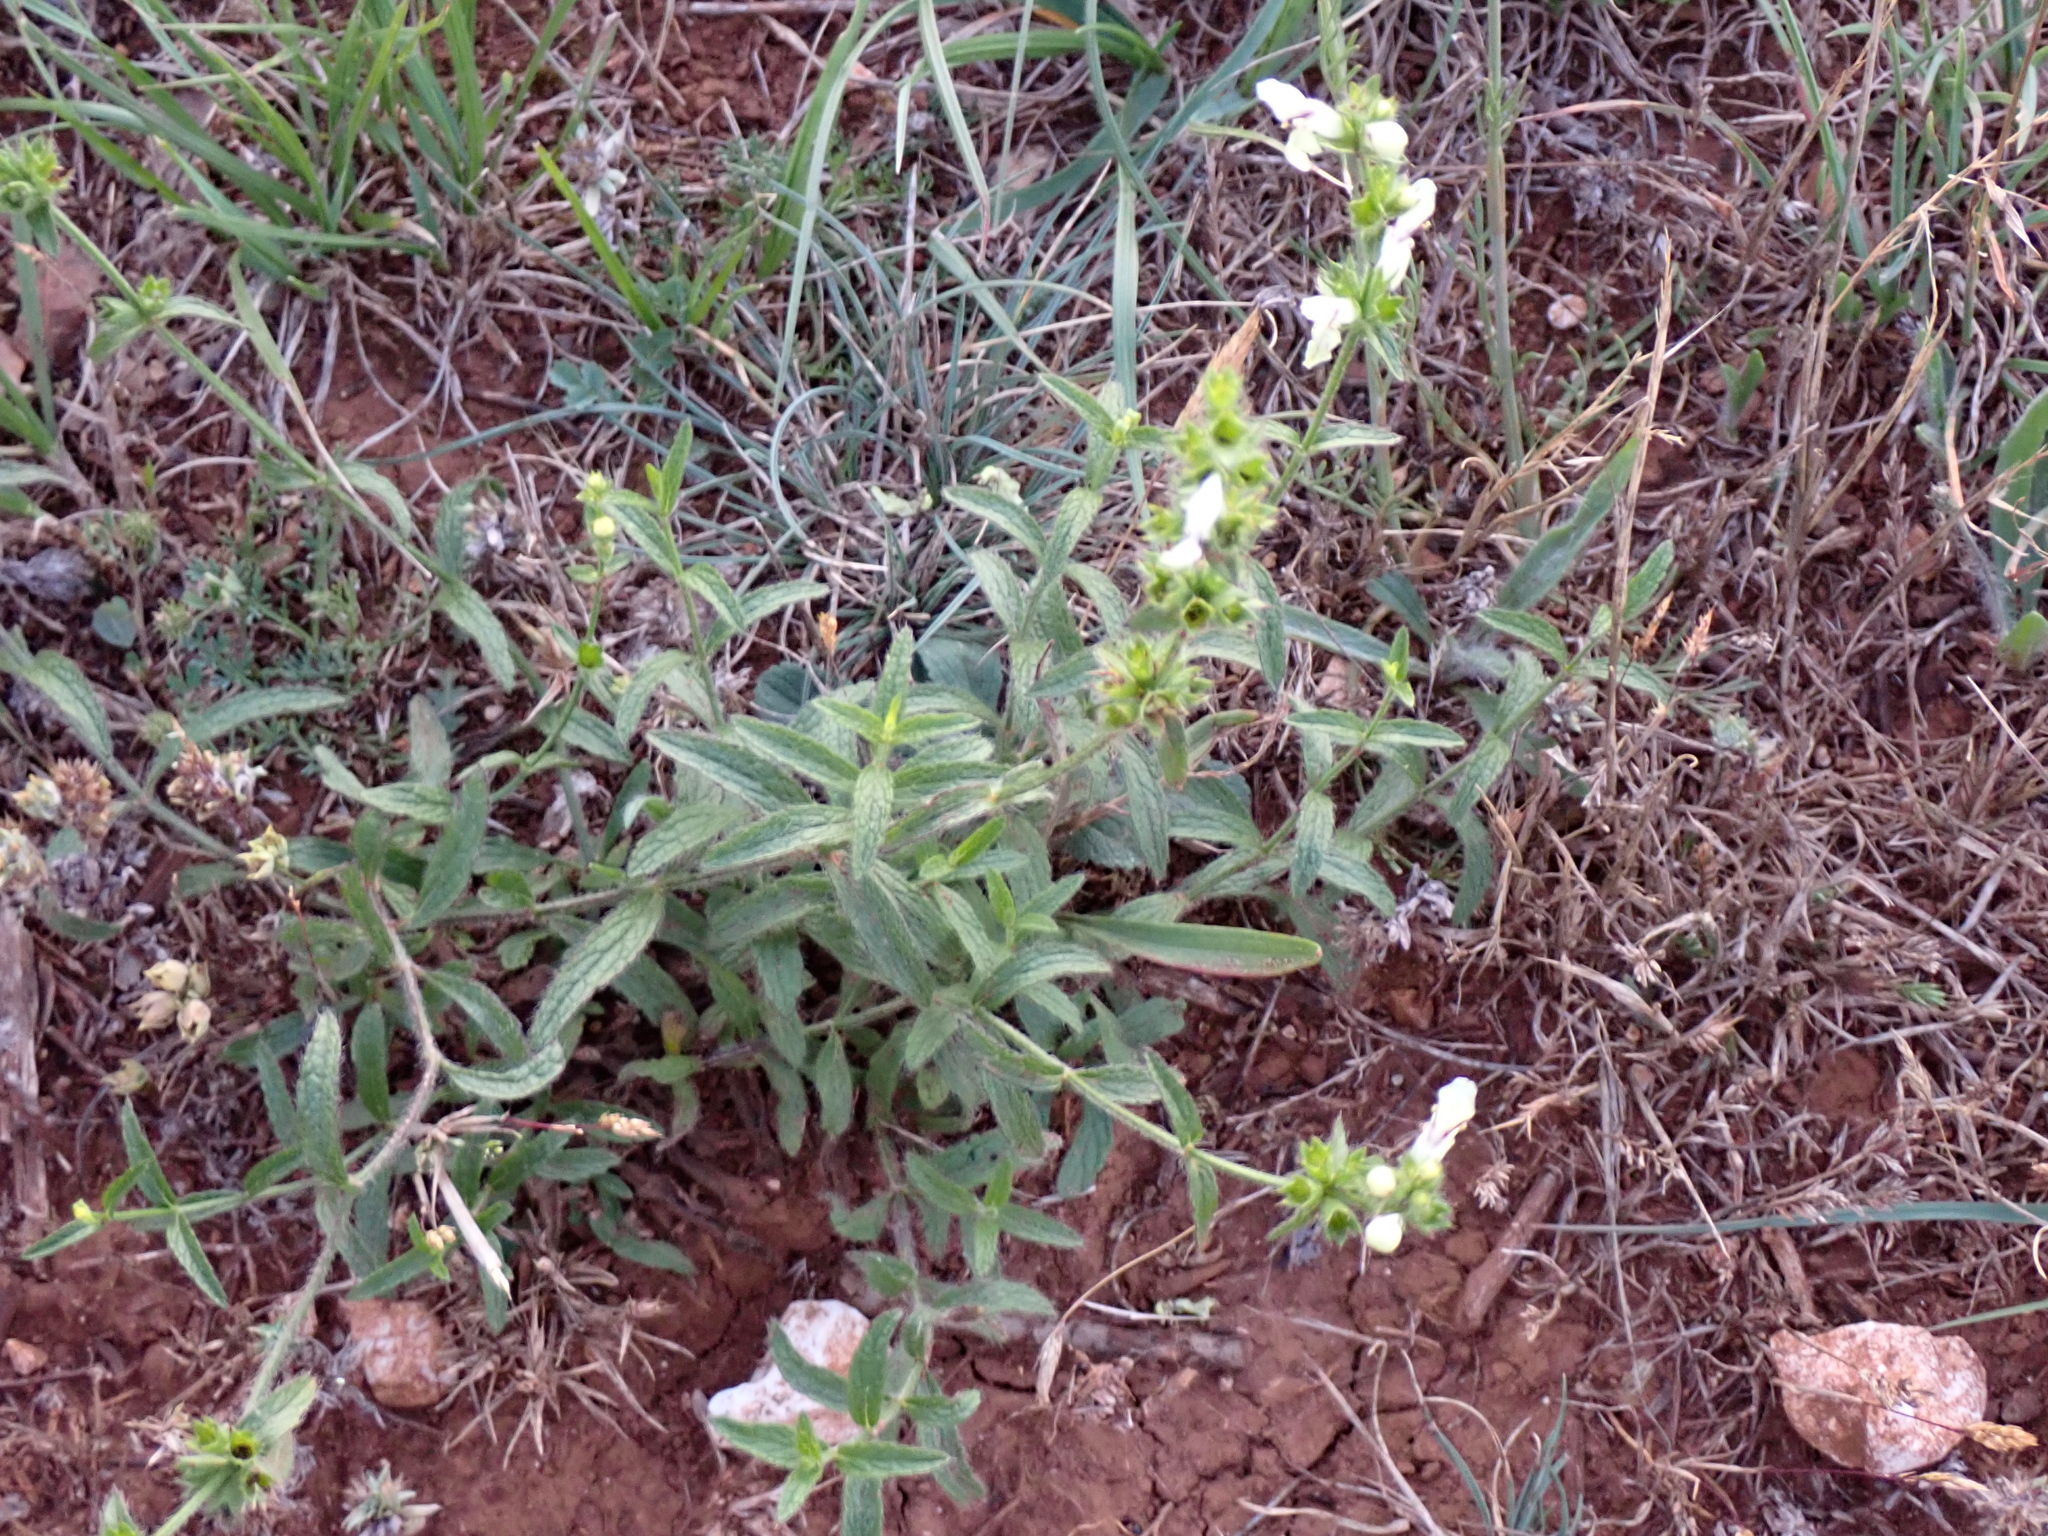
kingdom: Plantae
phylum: Tracheophyta
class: Magnoliopsida
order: Lamiales
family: Lamiaceae
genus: Stachys
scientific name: Stachys recta
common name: Perennial yellow-woundwort
